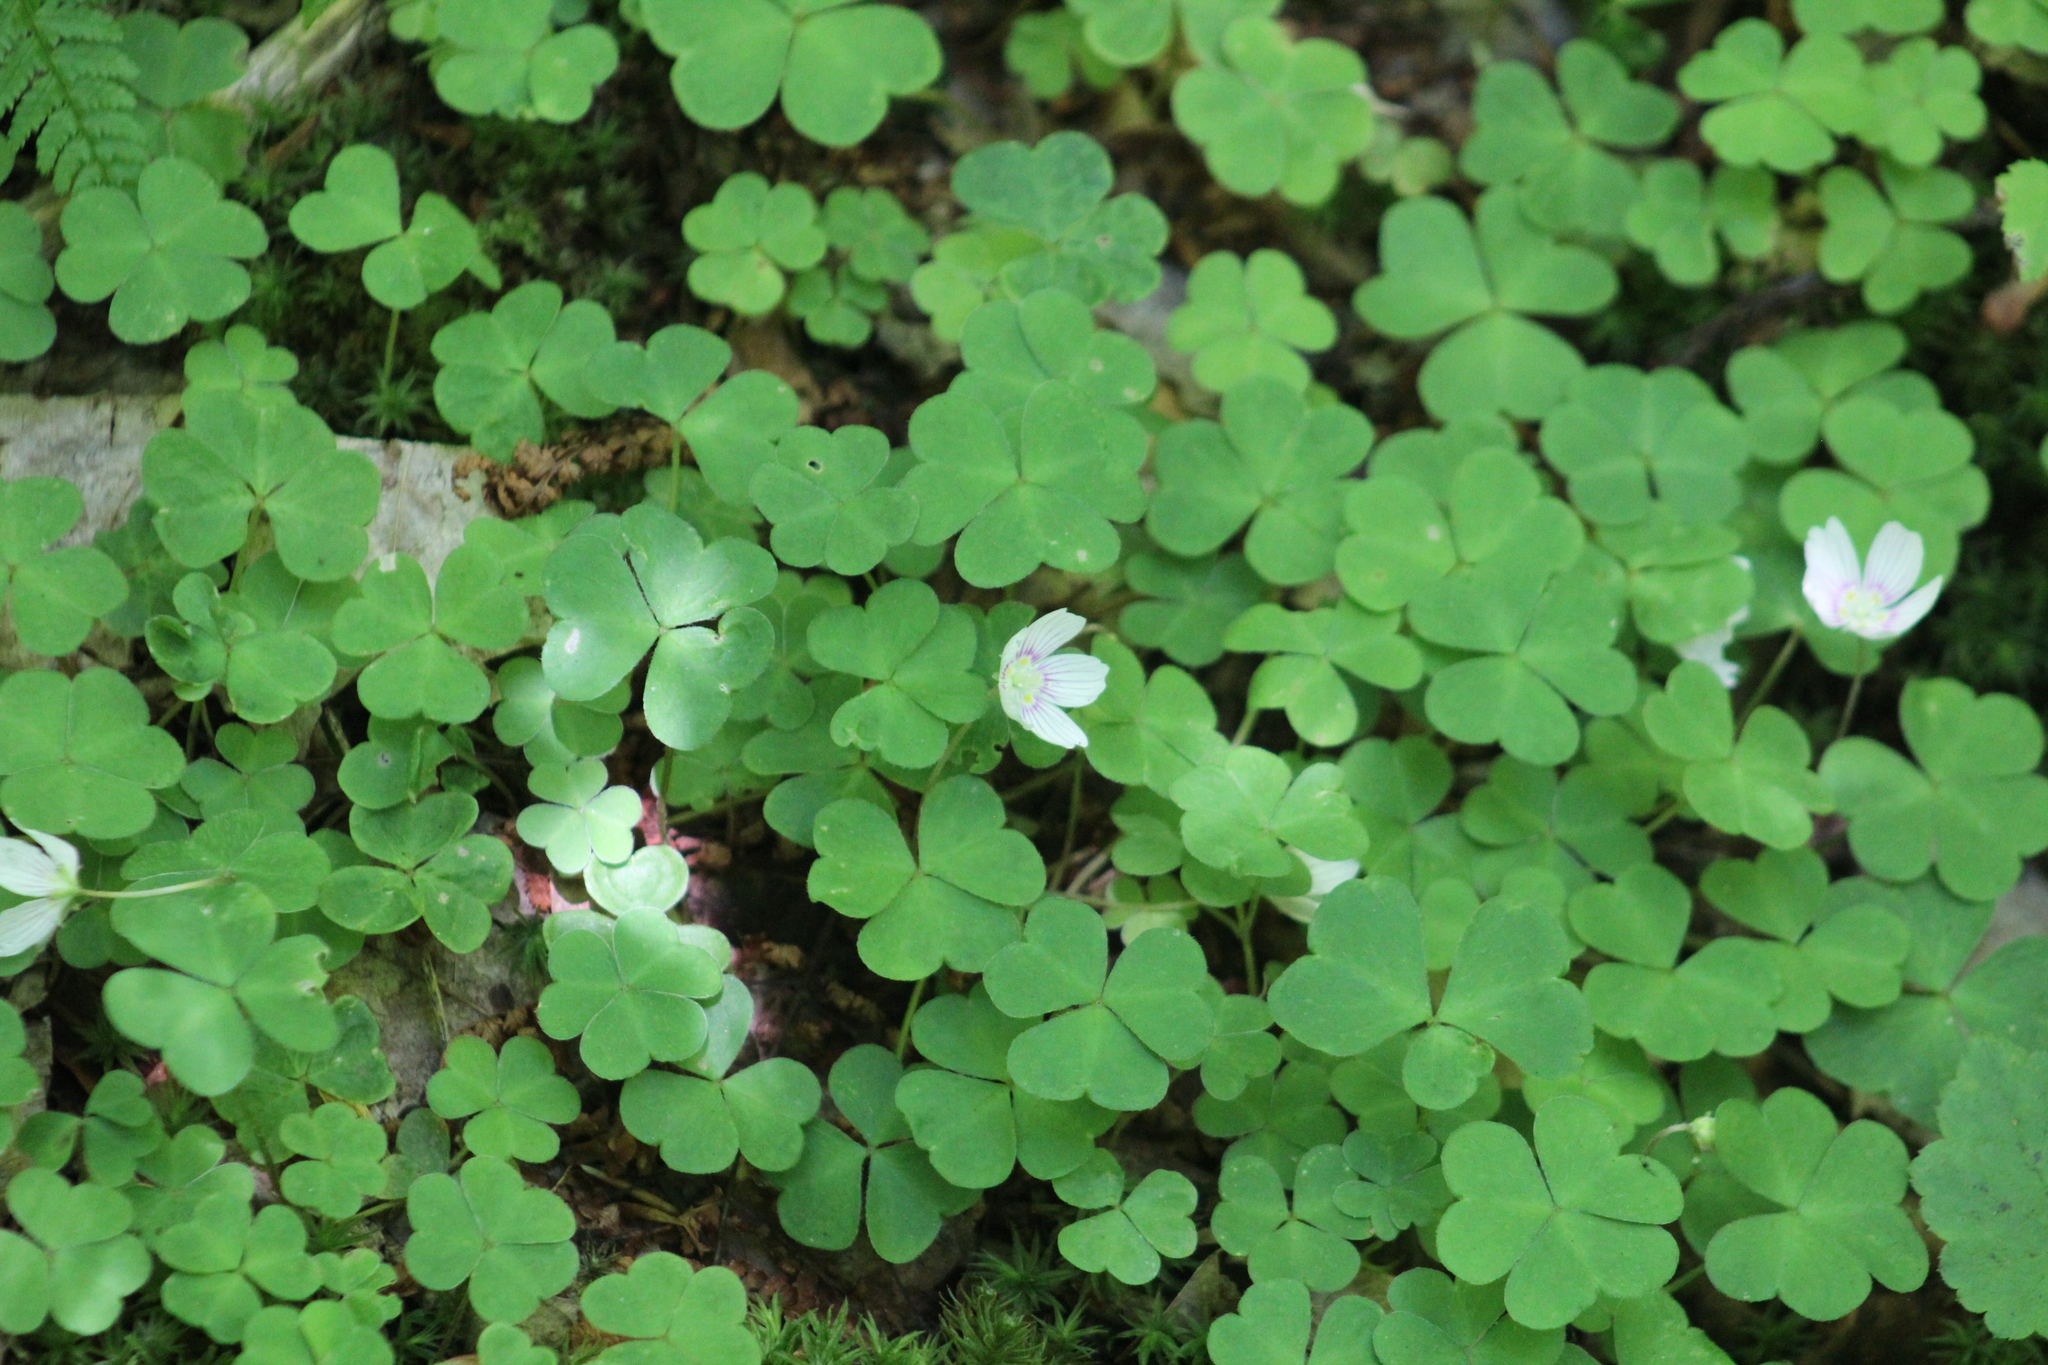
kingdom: Plantae
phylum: Tracheophyta
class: Magnoliopsida
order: Oxalidales
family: Oxalidaceae
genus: Oxalis
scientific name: Oxalis montana
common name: American wood-sorrel
